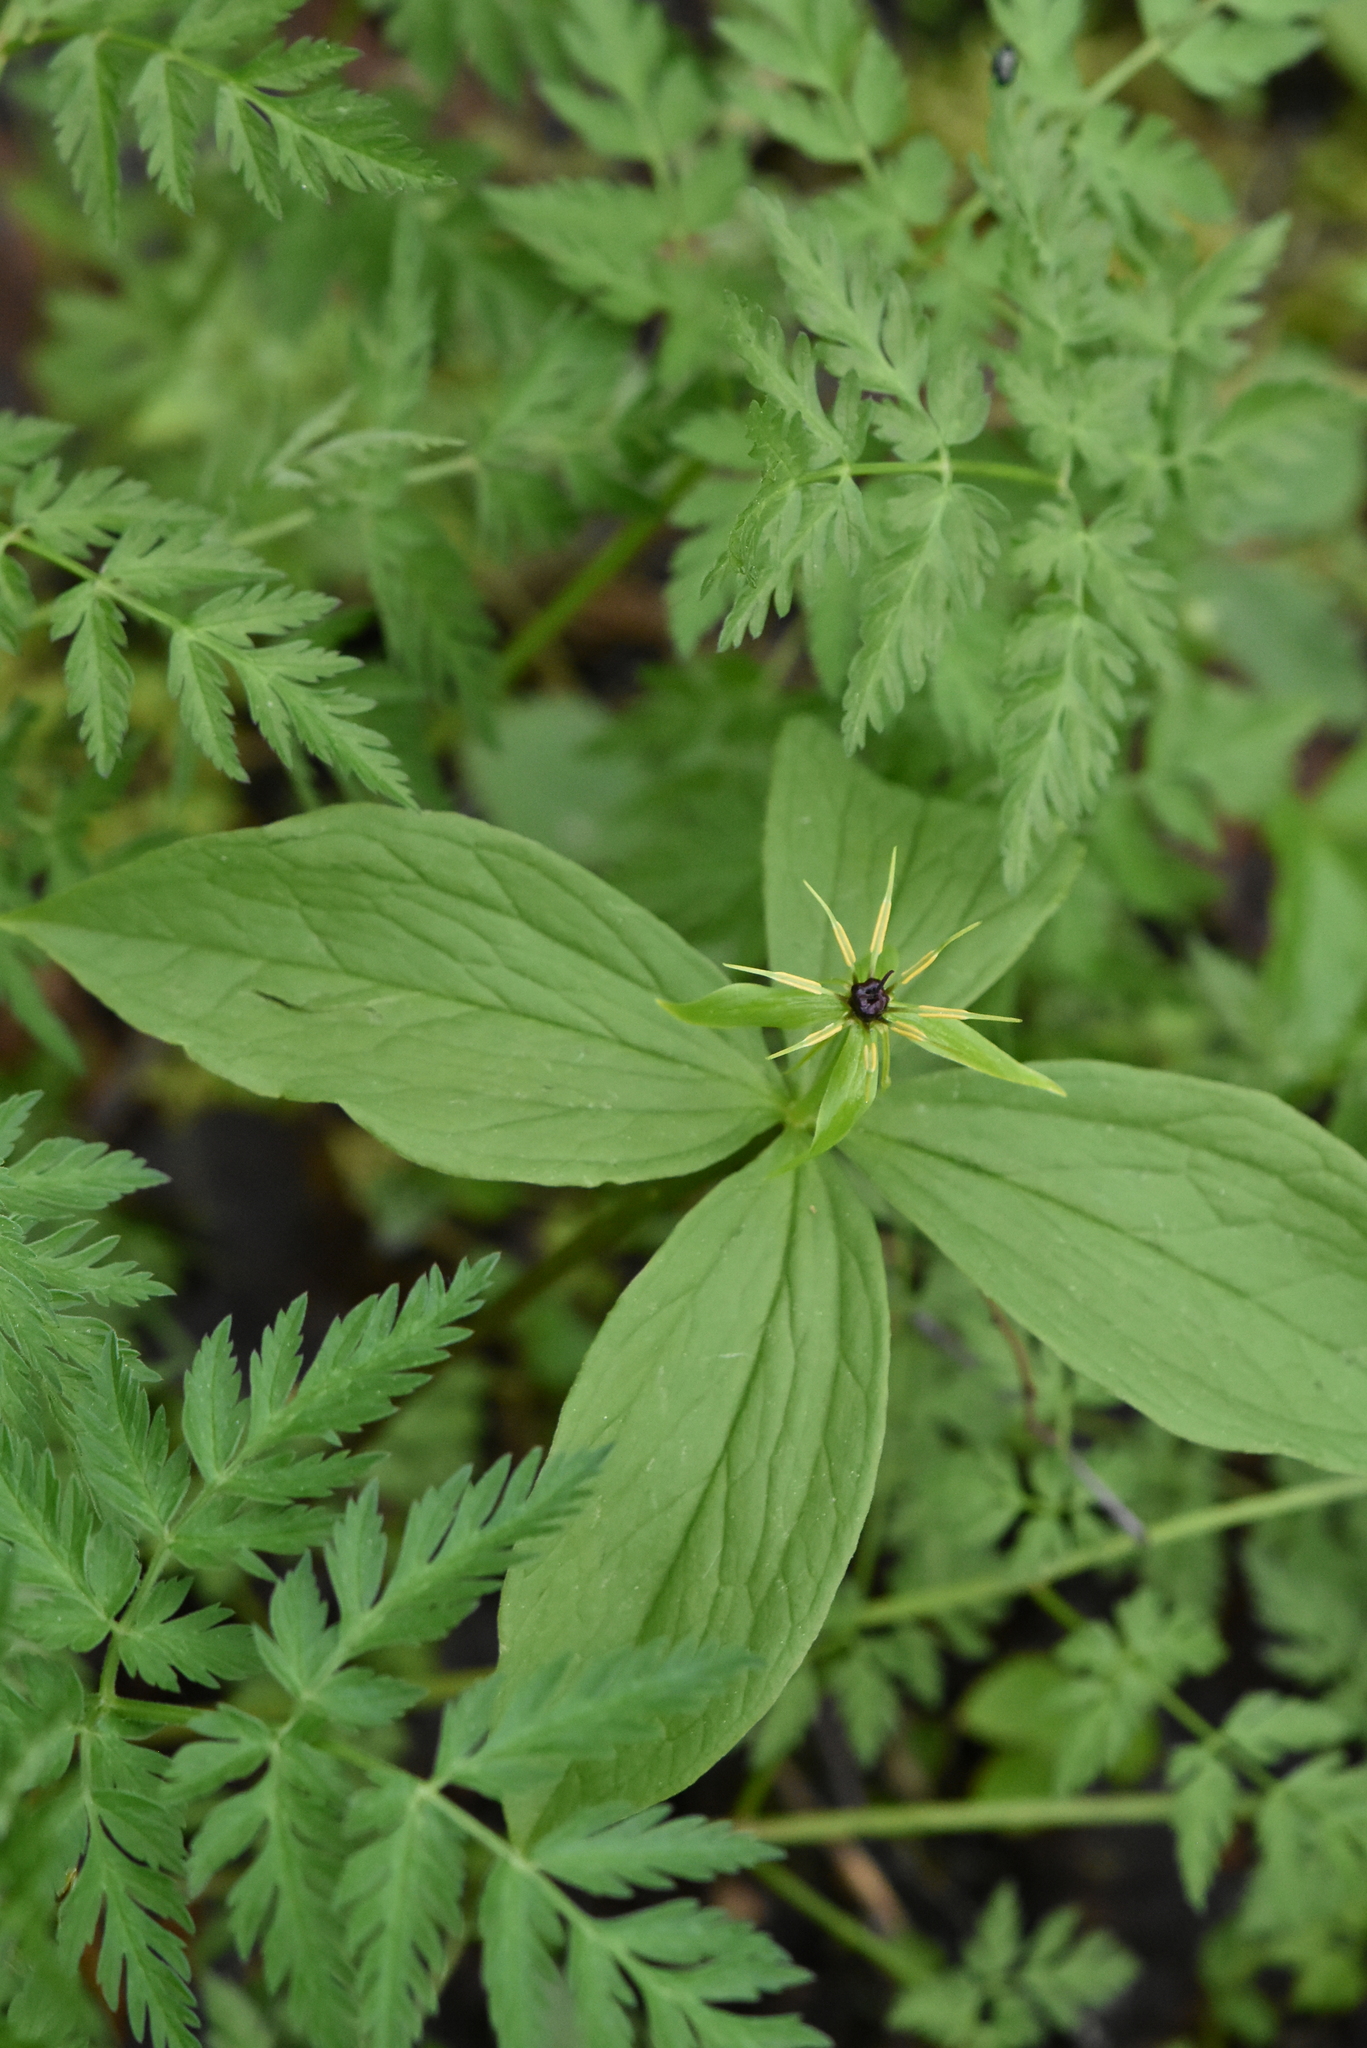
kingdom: Plantae
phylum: Tracheophyta
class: Liliopsida
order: Liliales
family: Melanthiaceae
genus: Paris
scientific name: Paris quadrifolia
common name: Herb-paris
